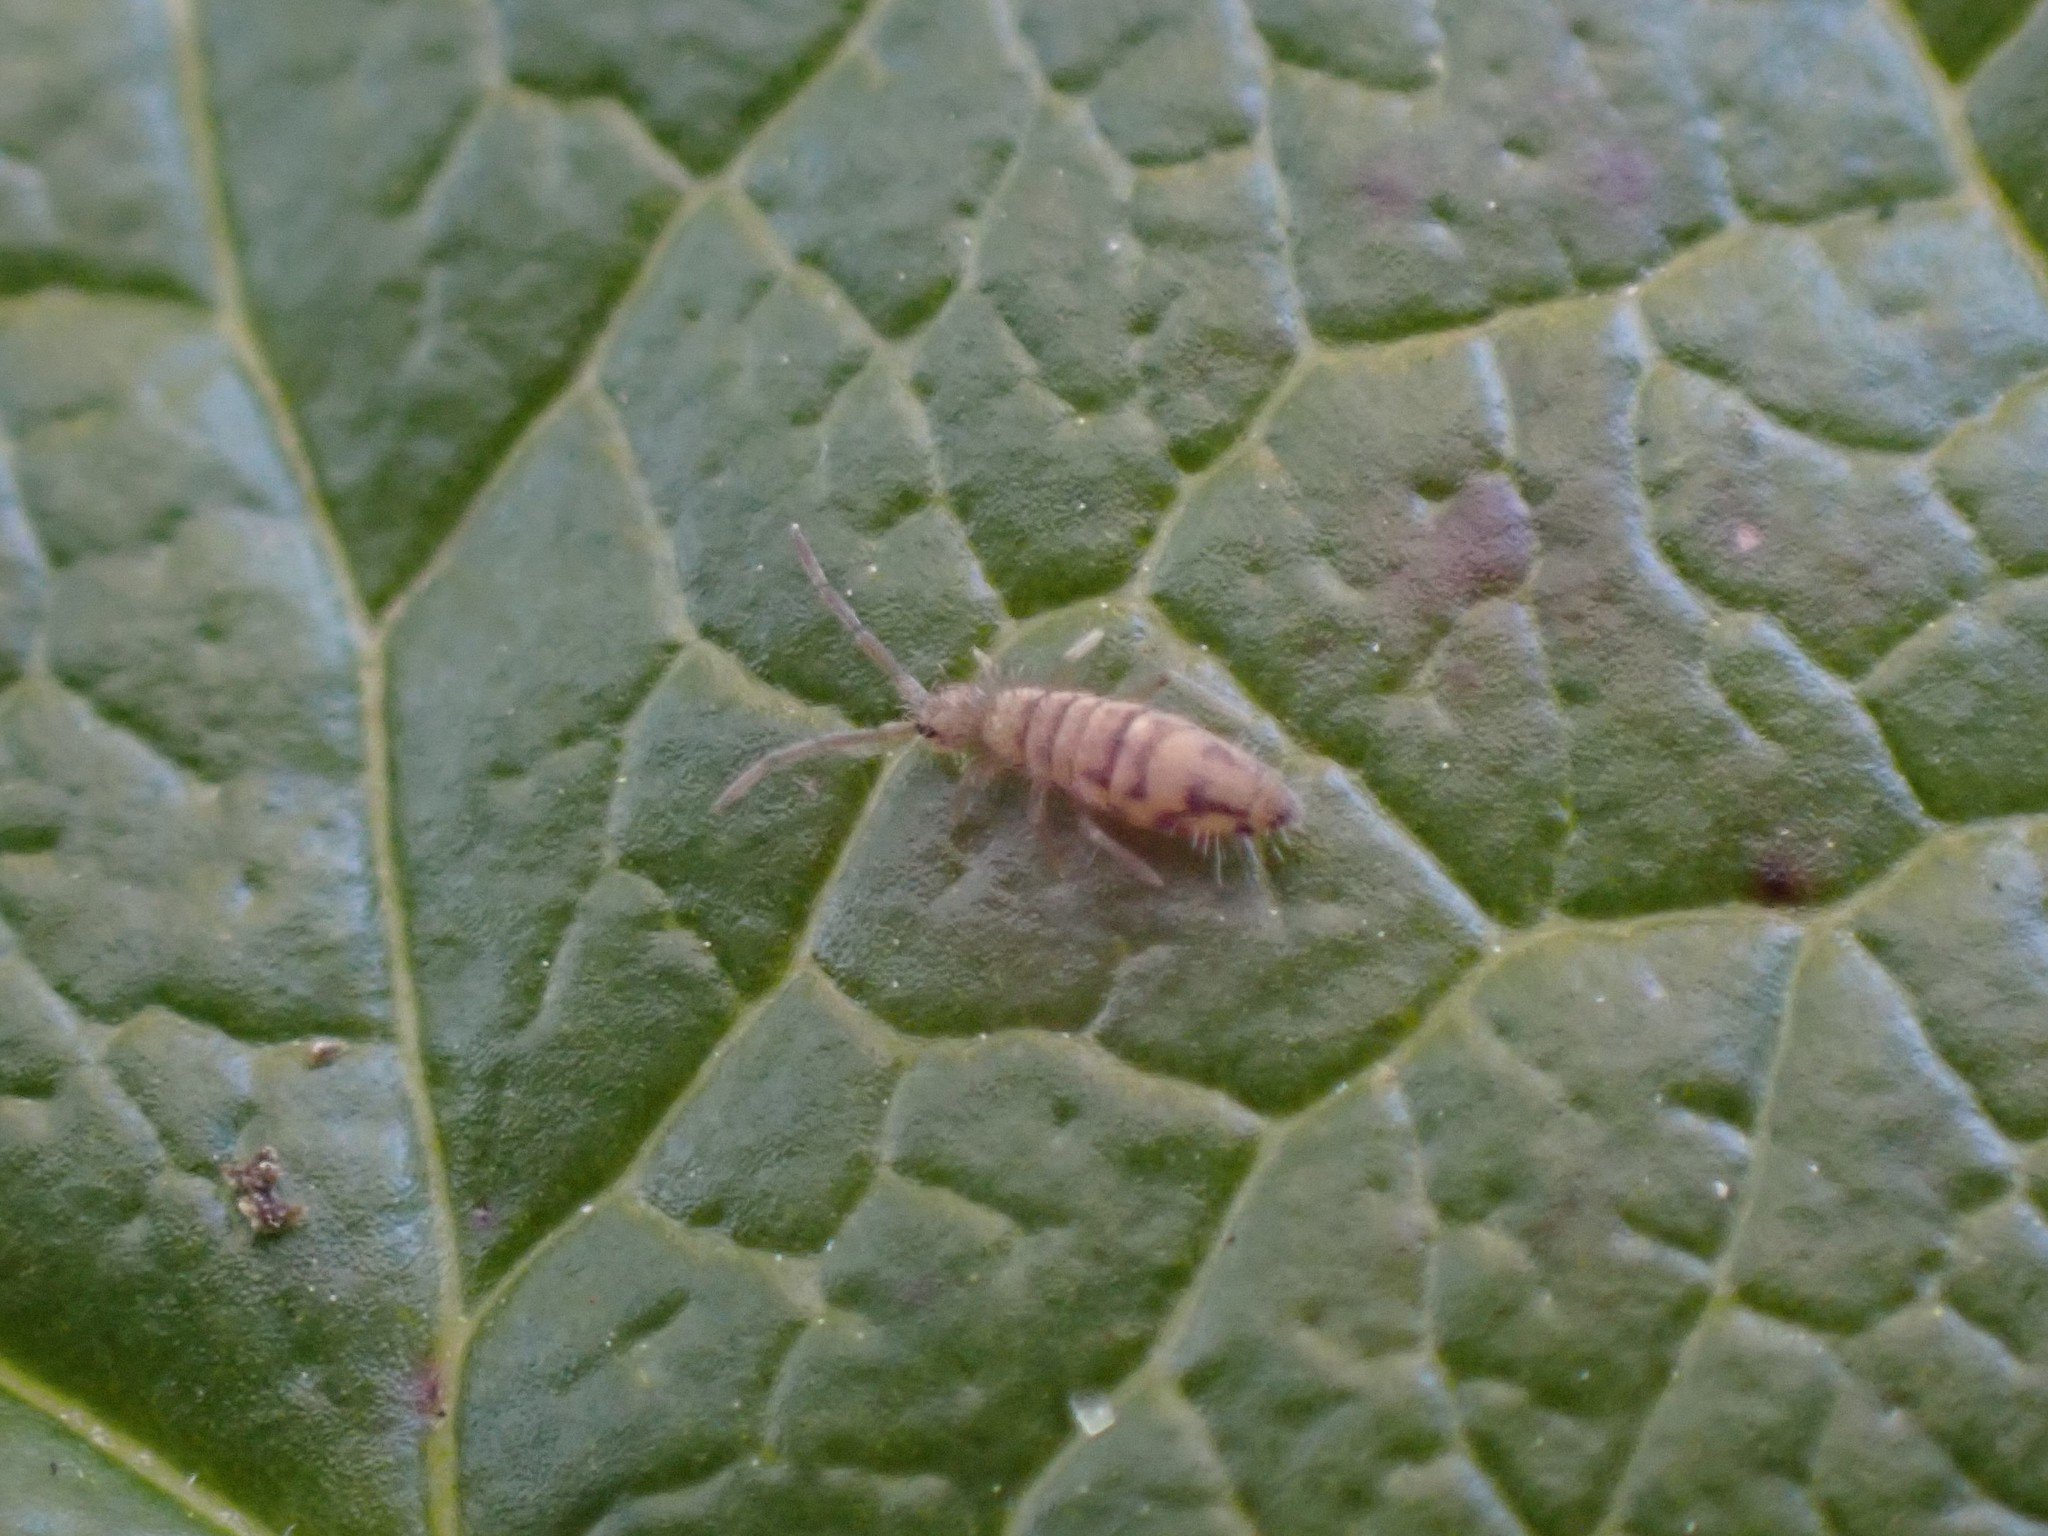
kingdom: Animalia
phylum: Arthropoda
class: Collembola
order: Entomobryomorpha
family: Entomobryidae
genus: Entomobrya
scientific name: Entomobrya nivalis
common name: Cosmopolitan springtail
